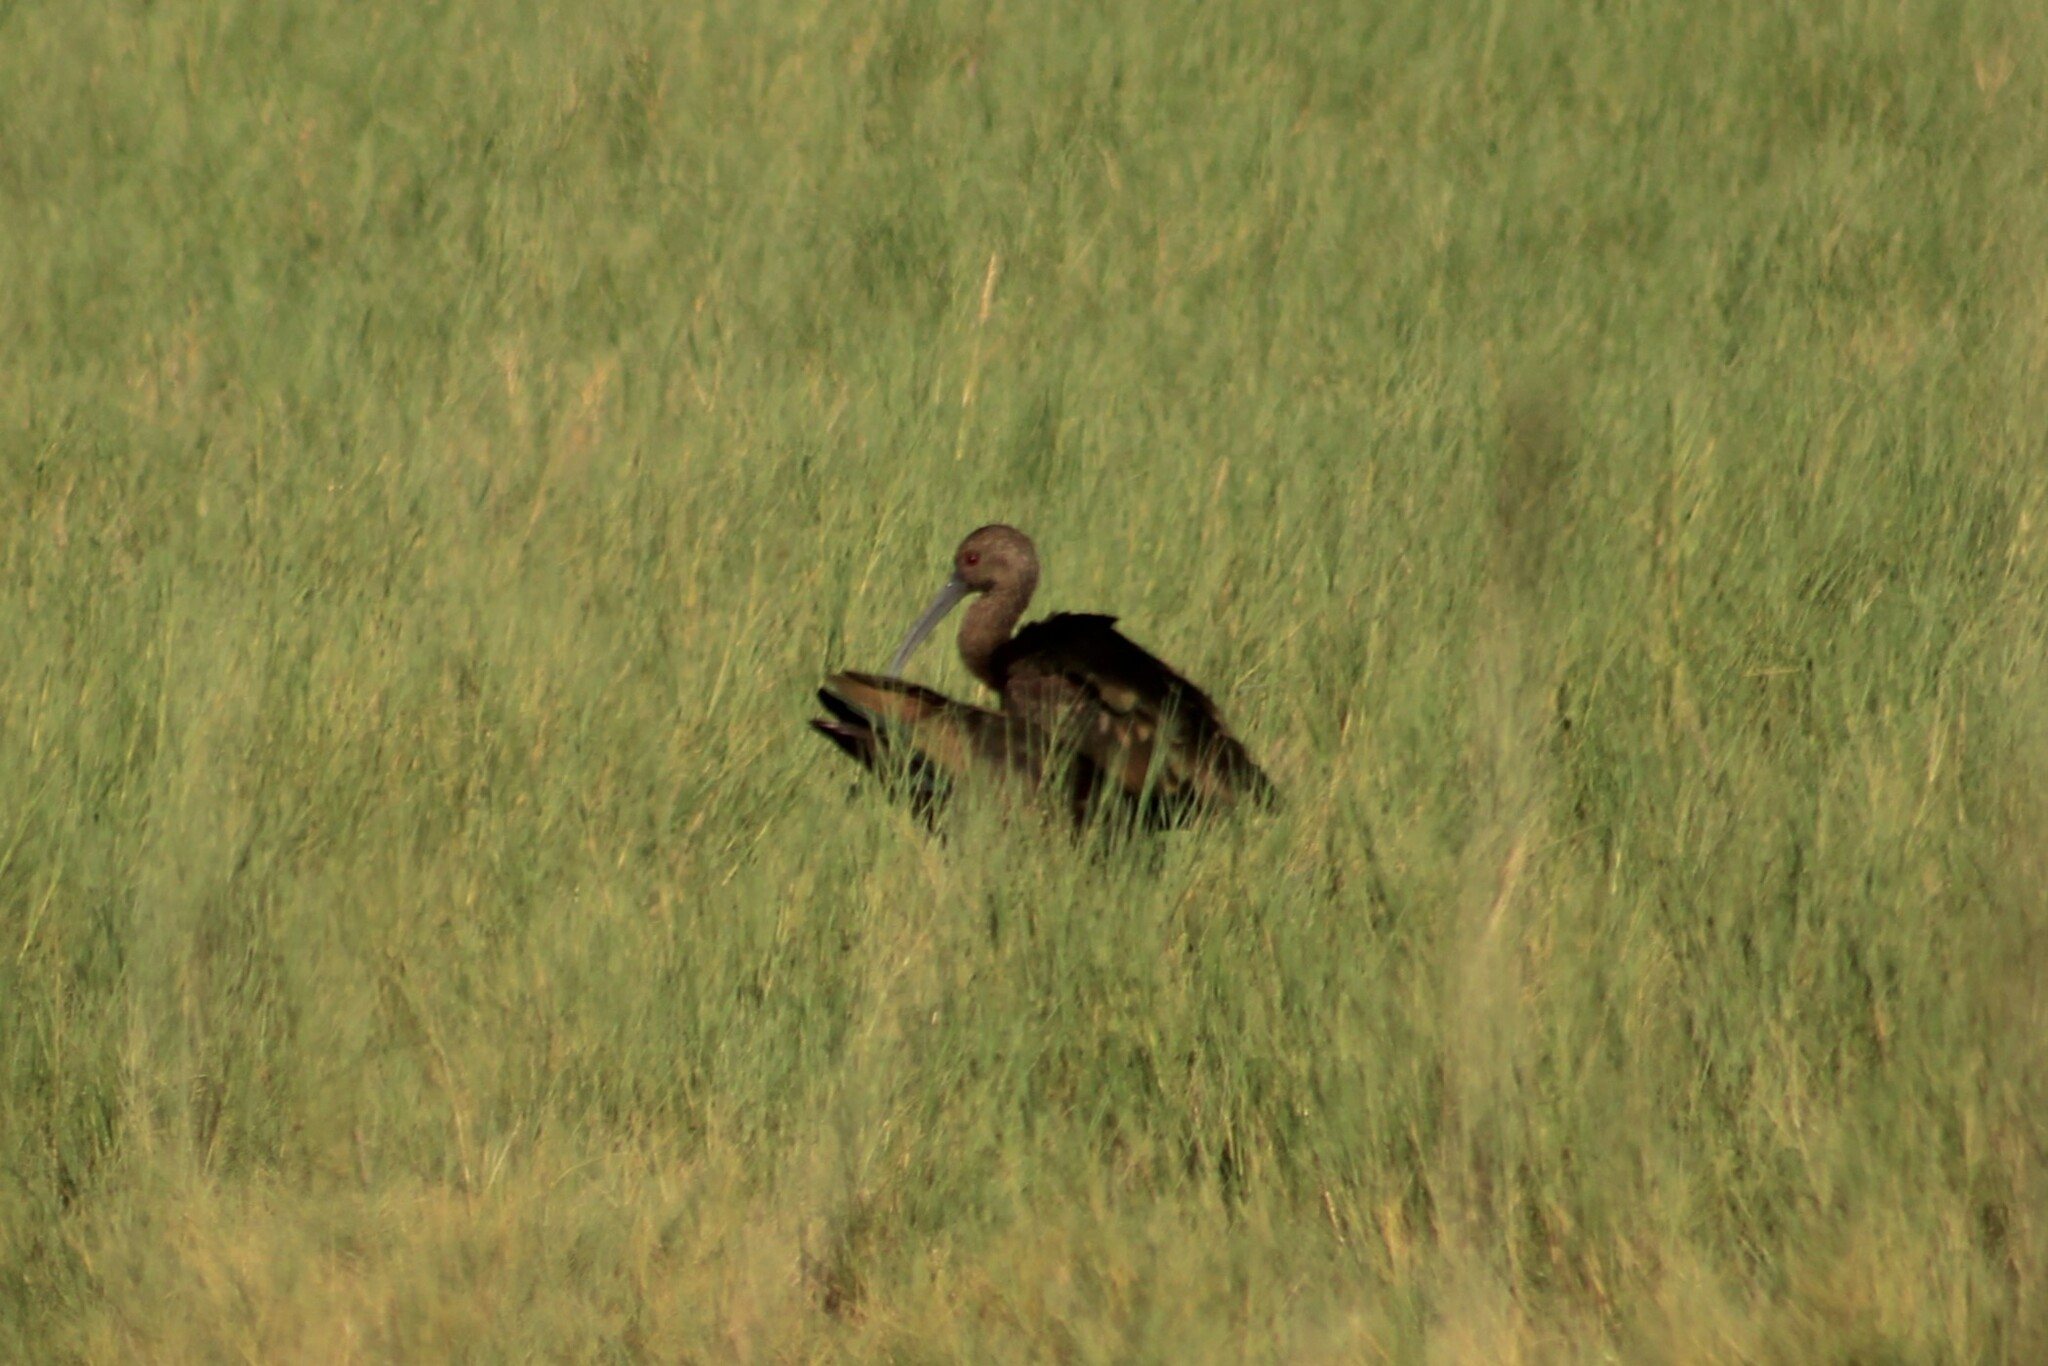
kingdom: Animalia
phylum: Chordata
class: Aves
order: Pelecaniformes
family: Threskiornithidae
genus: Plegadis
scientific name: Plegadis chihi
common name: White-faced ibis
